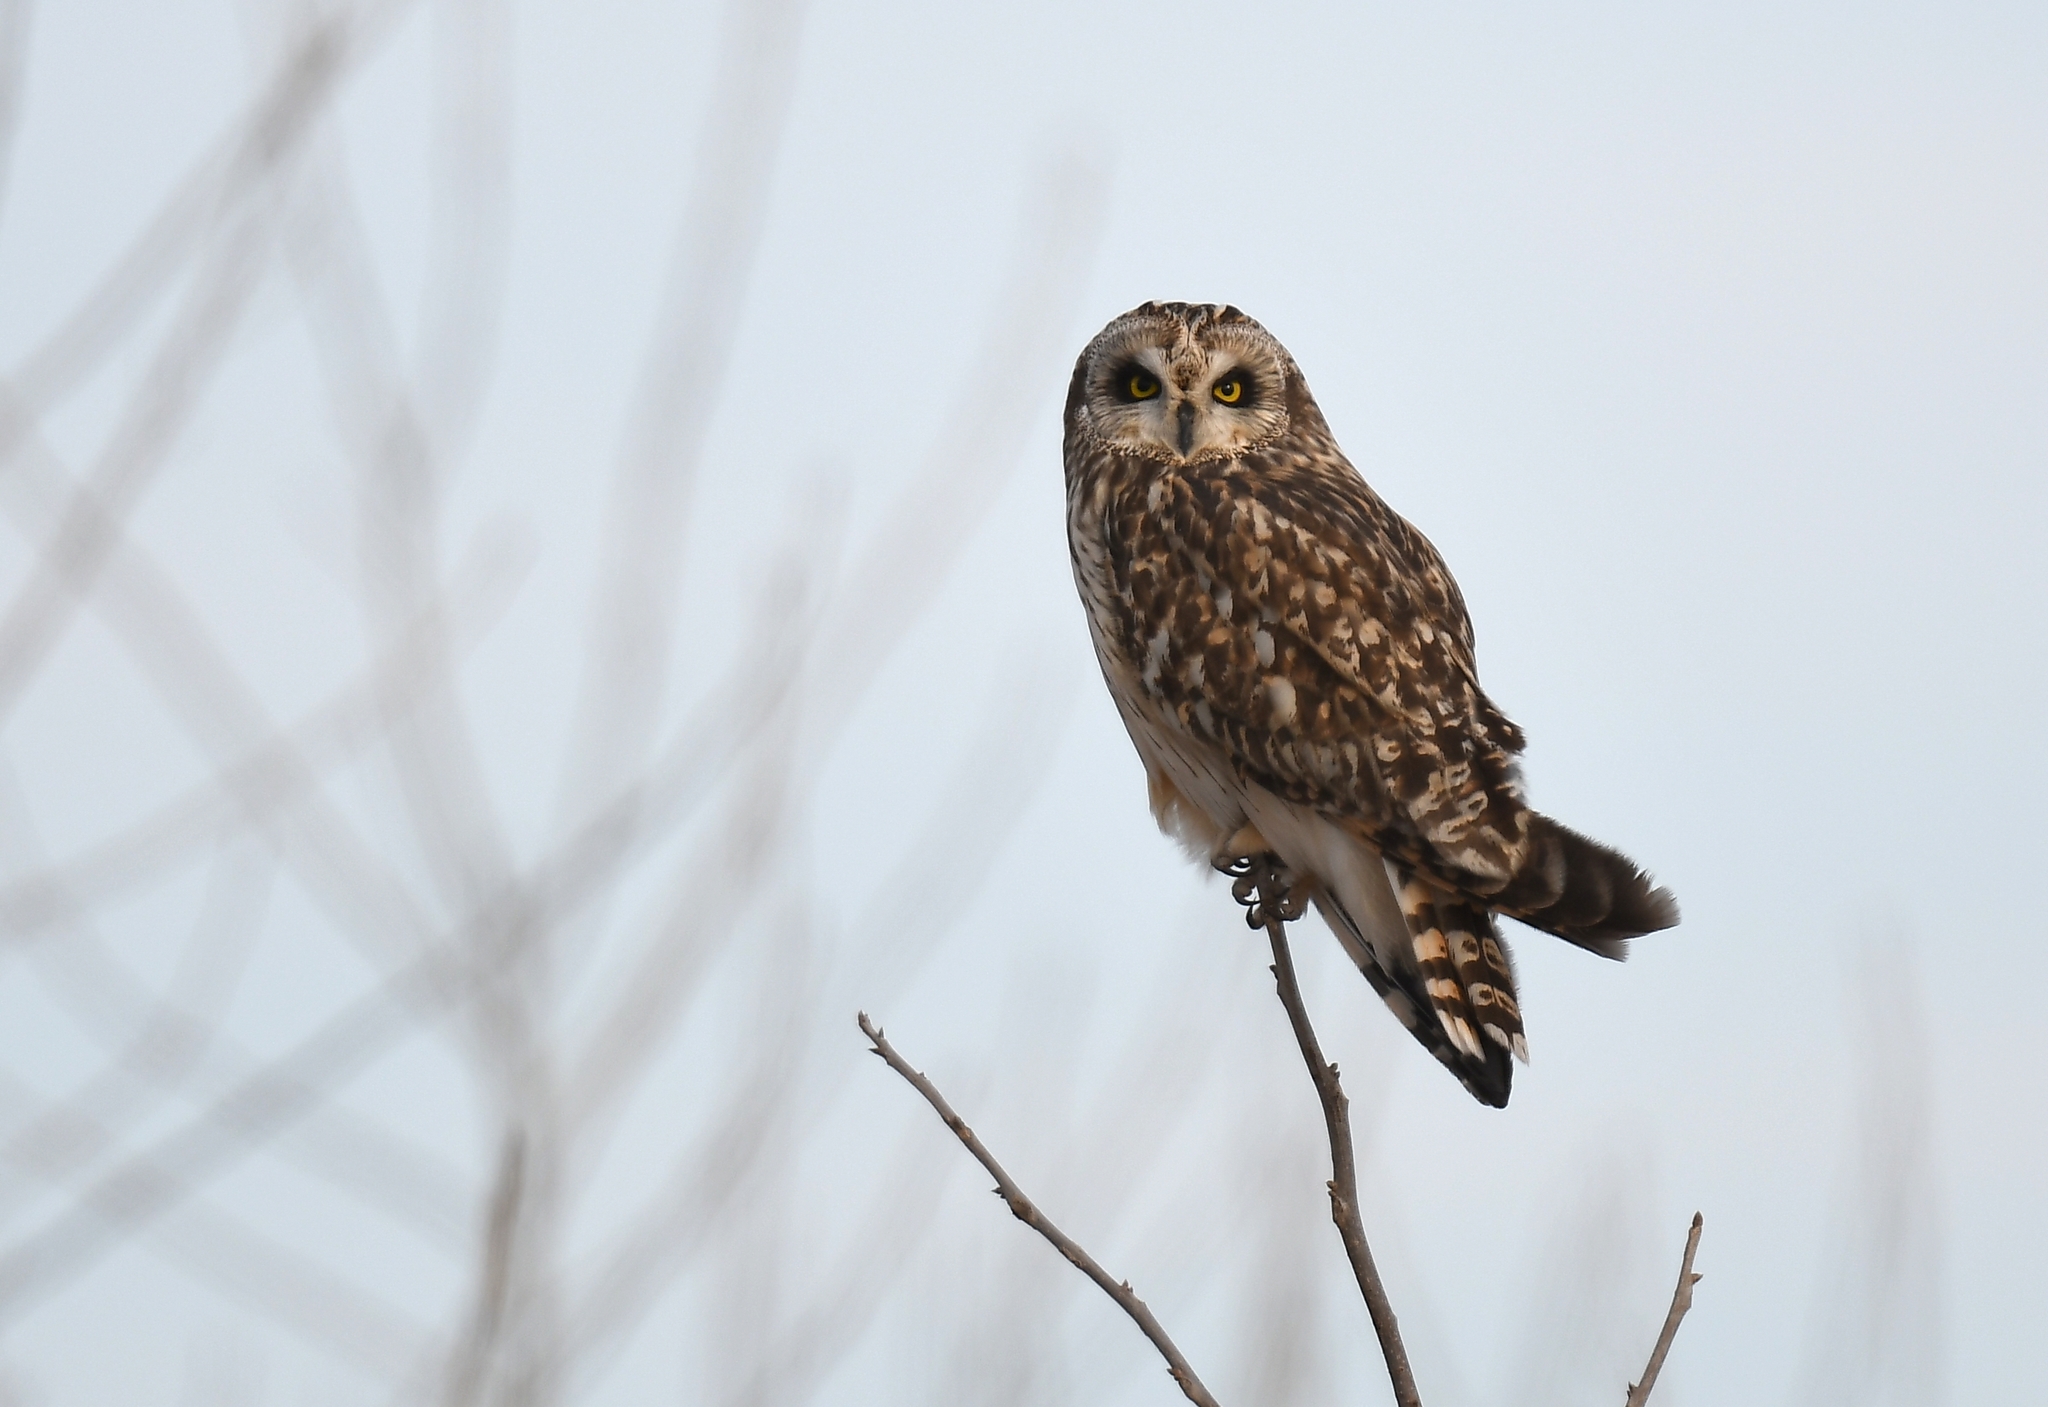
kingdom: Animalia
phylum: Chordata
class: Aves
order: Strigiformes
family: Strigidae
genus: Asio
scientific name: Asio flammeus
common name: Short-eared owl
